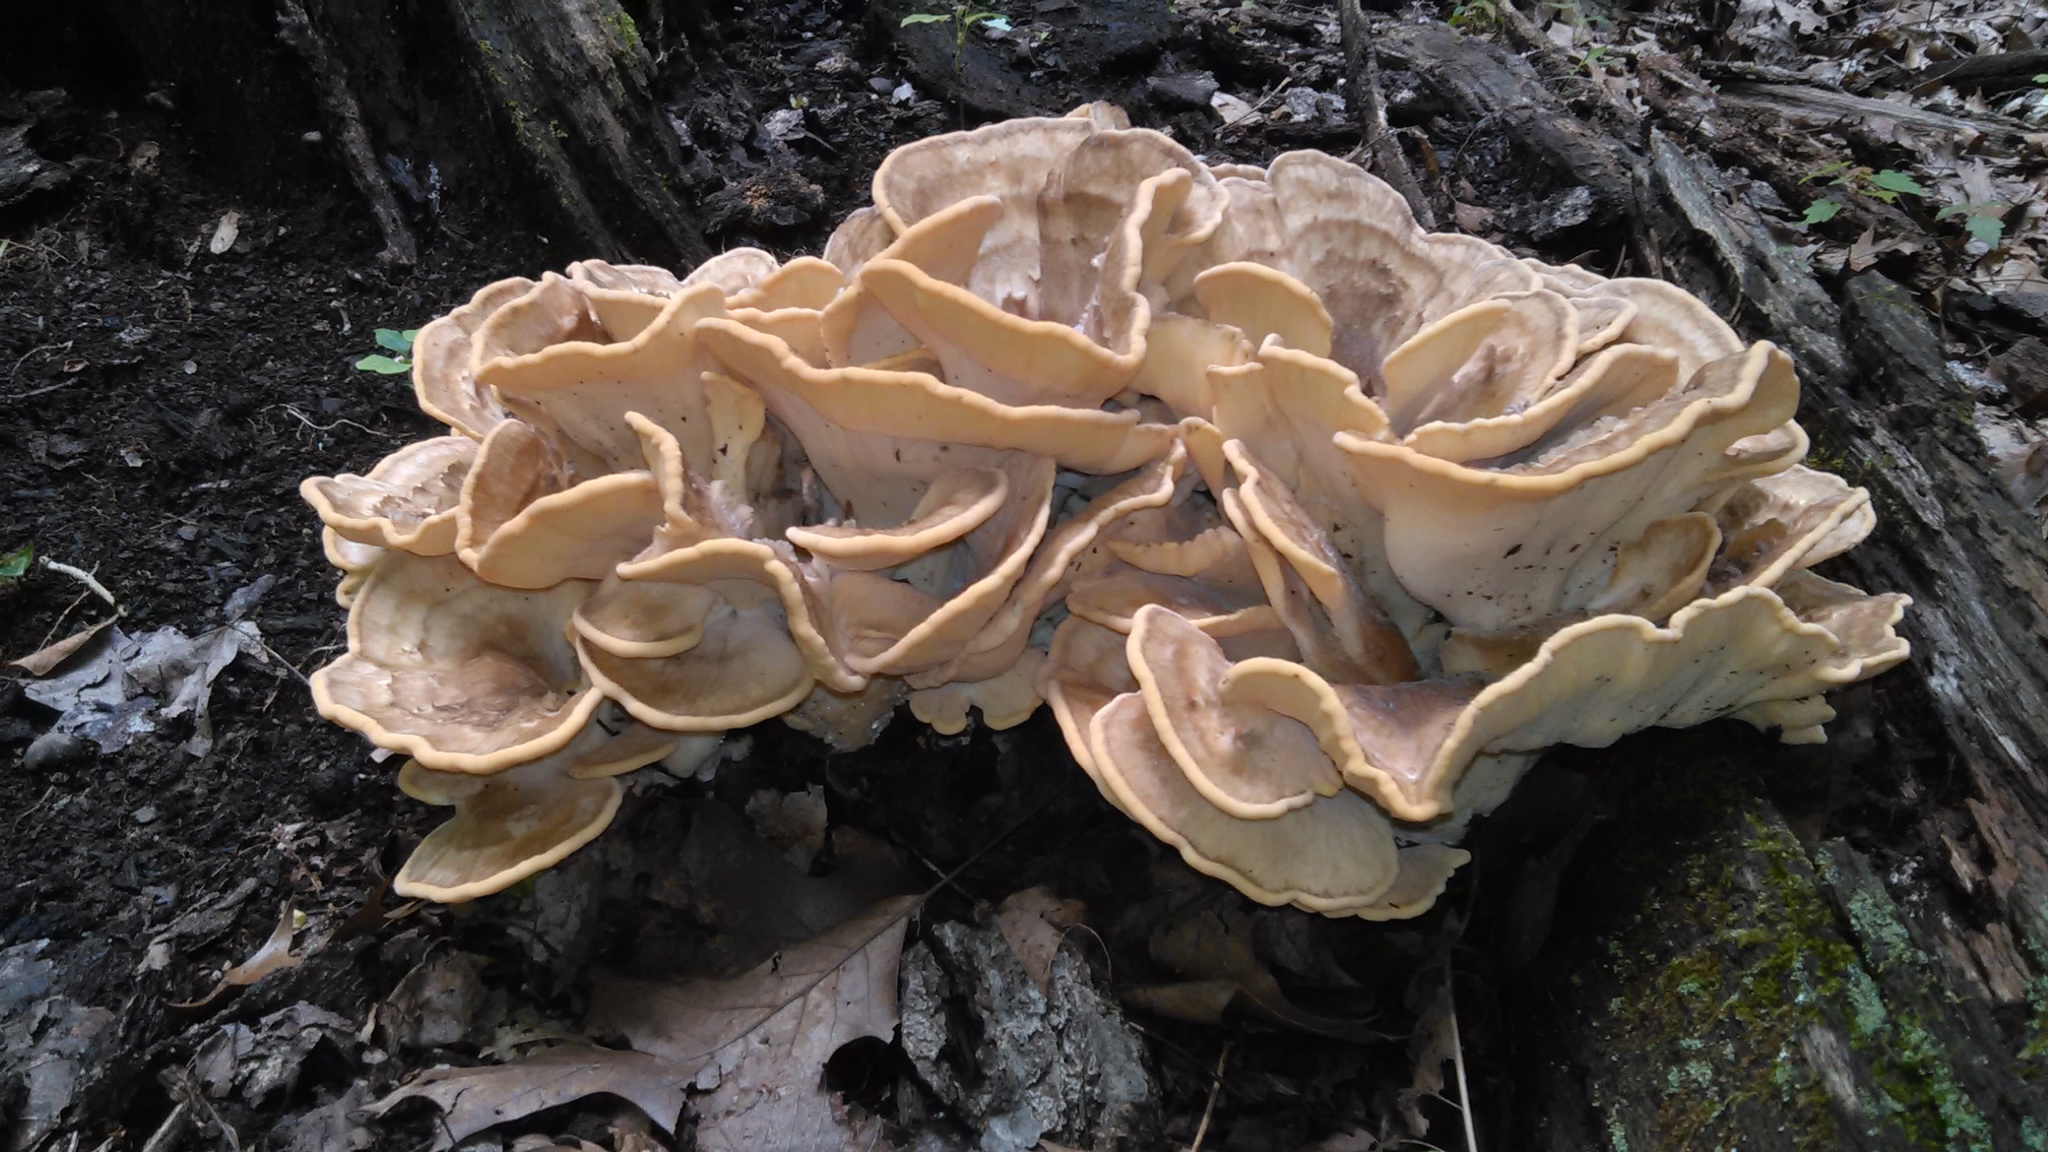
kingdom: Fungi
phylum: Basidiomycota
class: Agaricomycetes
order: Polyporales
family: Meripilaceae
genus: Meripilus
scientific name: Meripilus sumstinei
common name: Black-staining polypore
